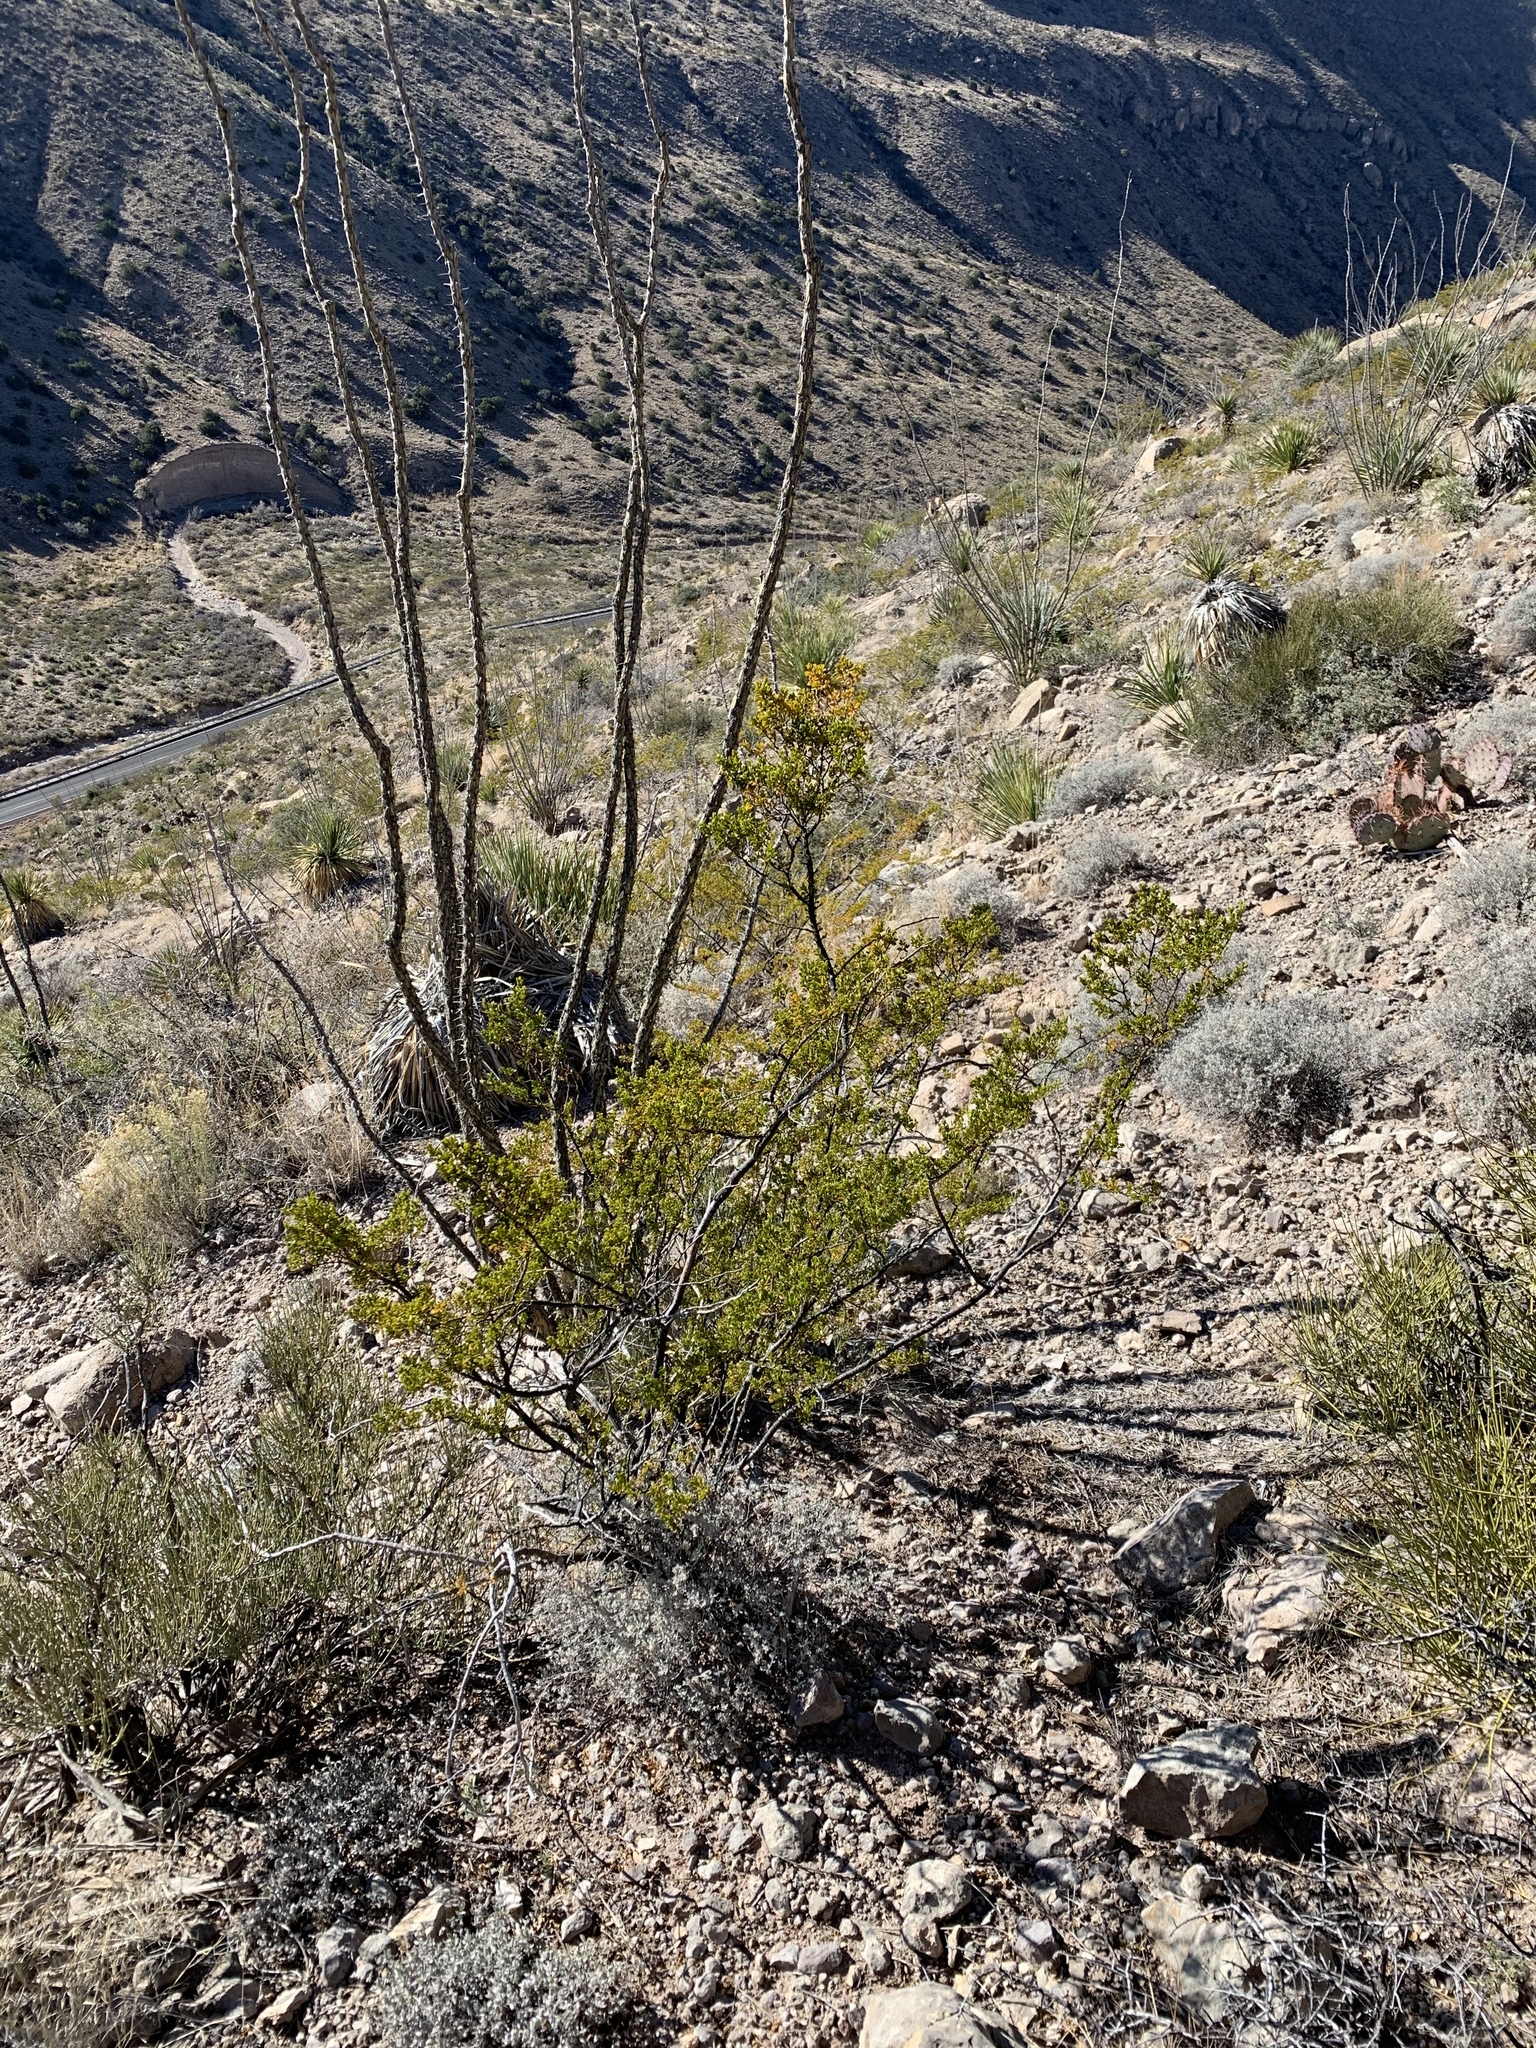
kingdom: Plantae
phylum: Tracheophyta
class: Magnoliopsida
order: Zygophyllales
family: Zygophyllaceae
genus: Larrea
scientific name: Larrea tridentata
